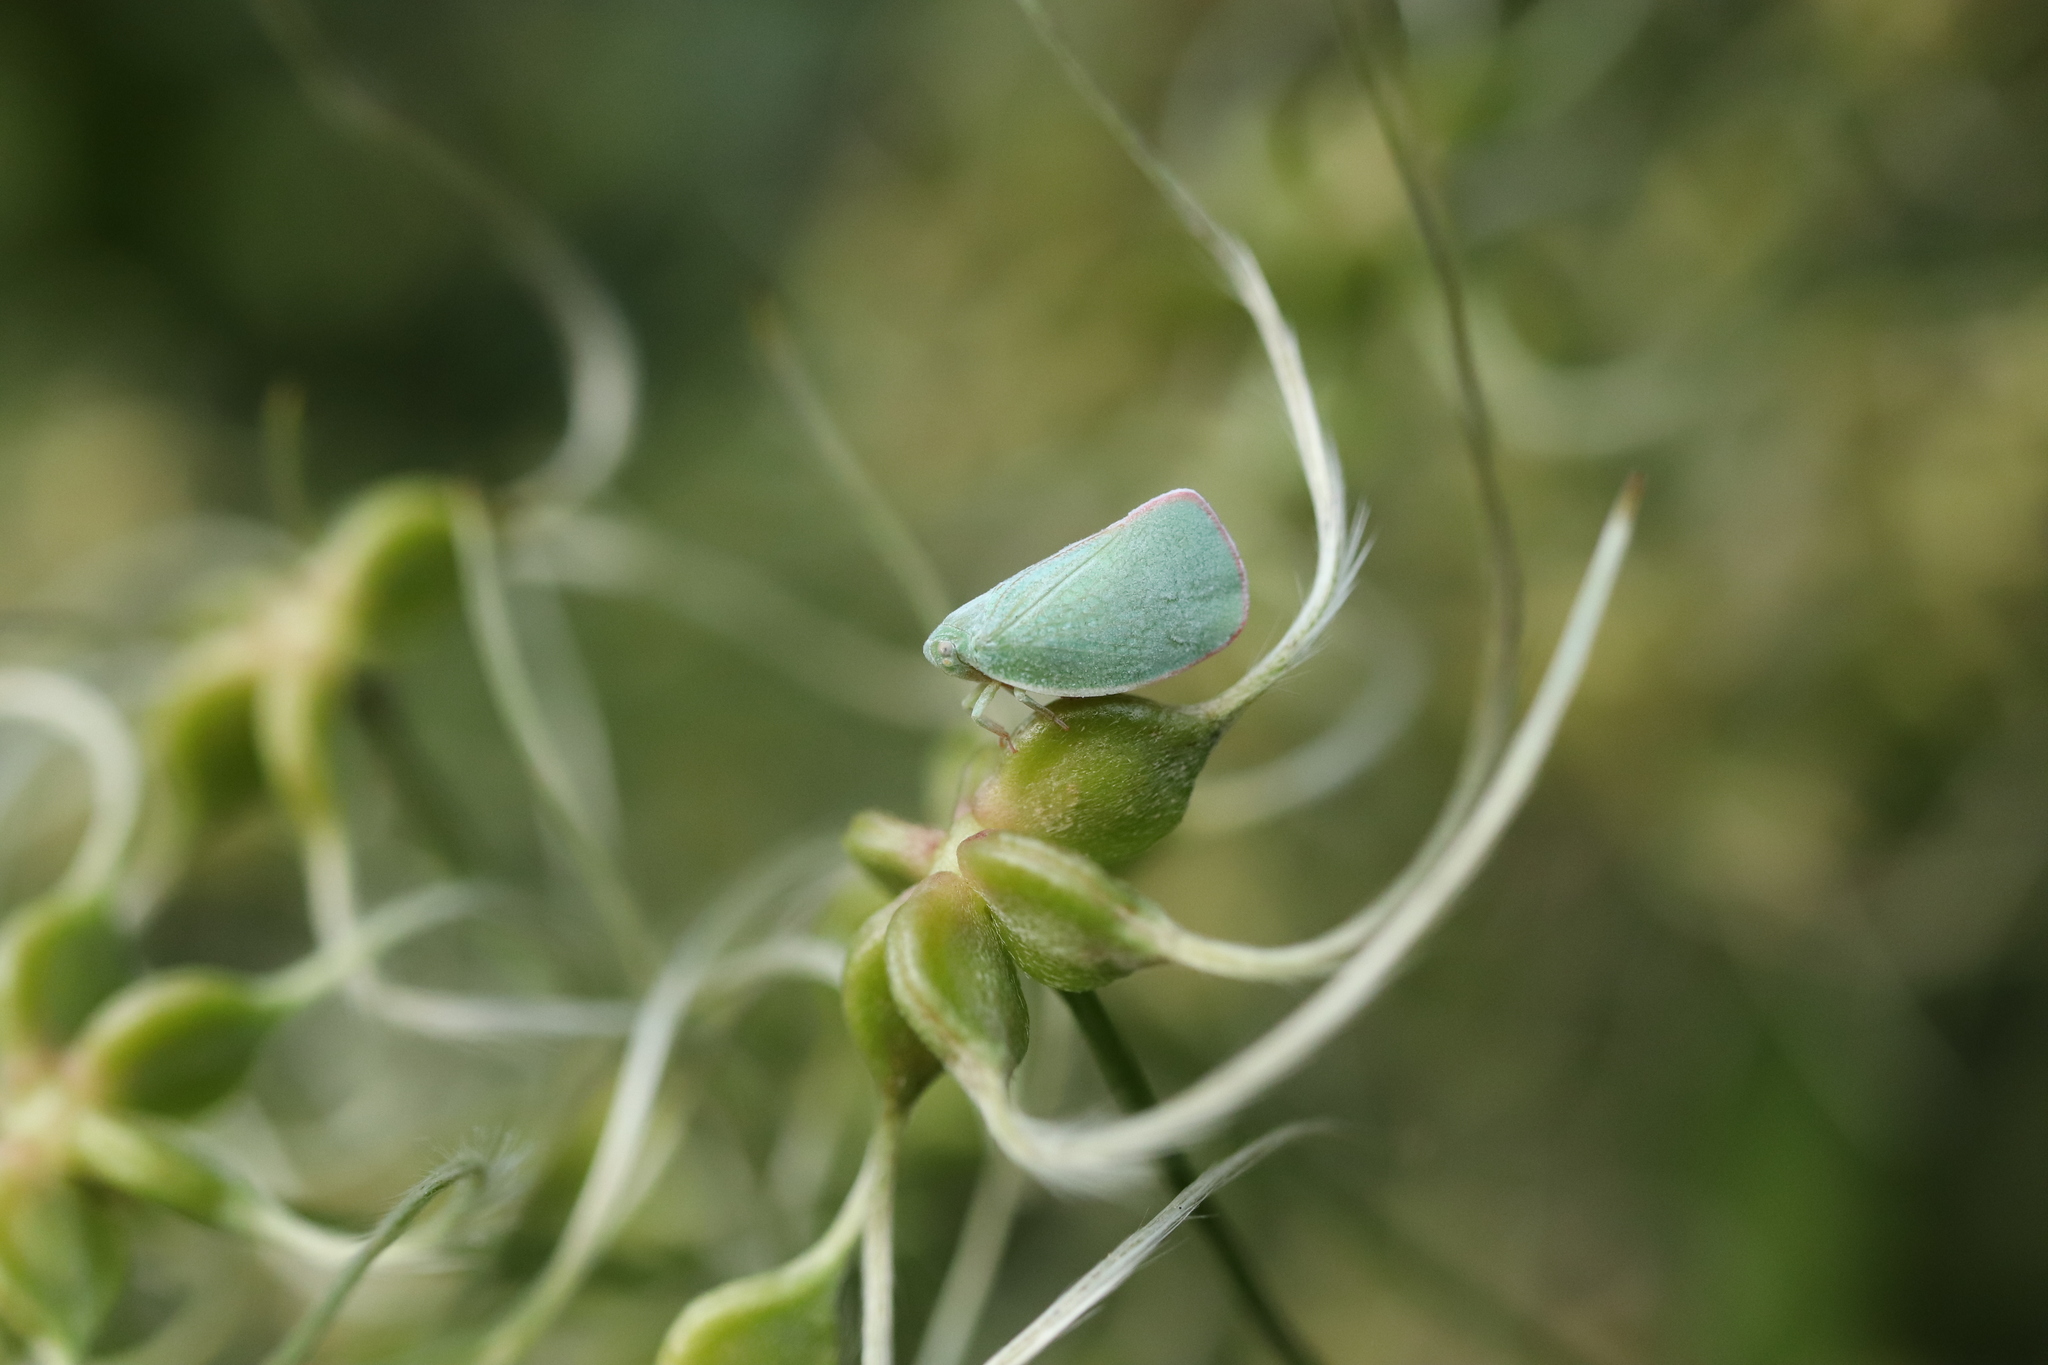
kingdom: Animalia
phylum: Arthropoda
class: Insecta
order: Hemiptera
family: Flatidae
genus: Geisha
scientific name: Geisha distinctissima
